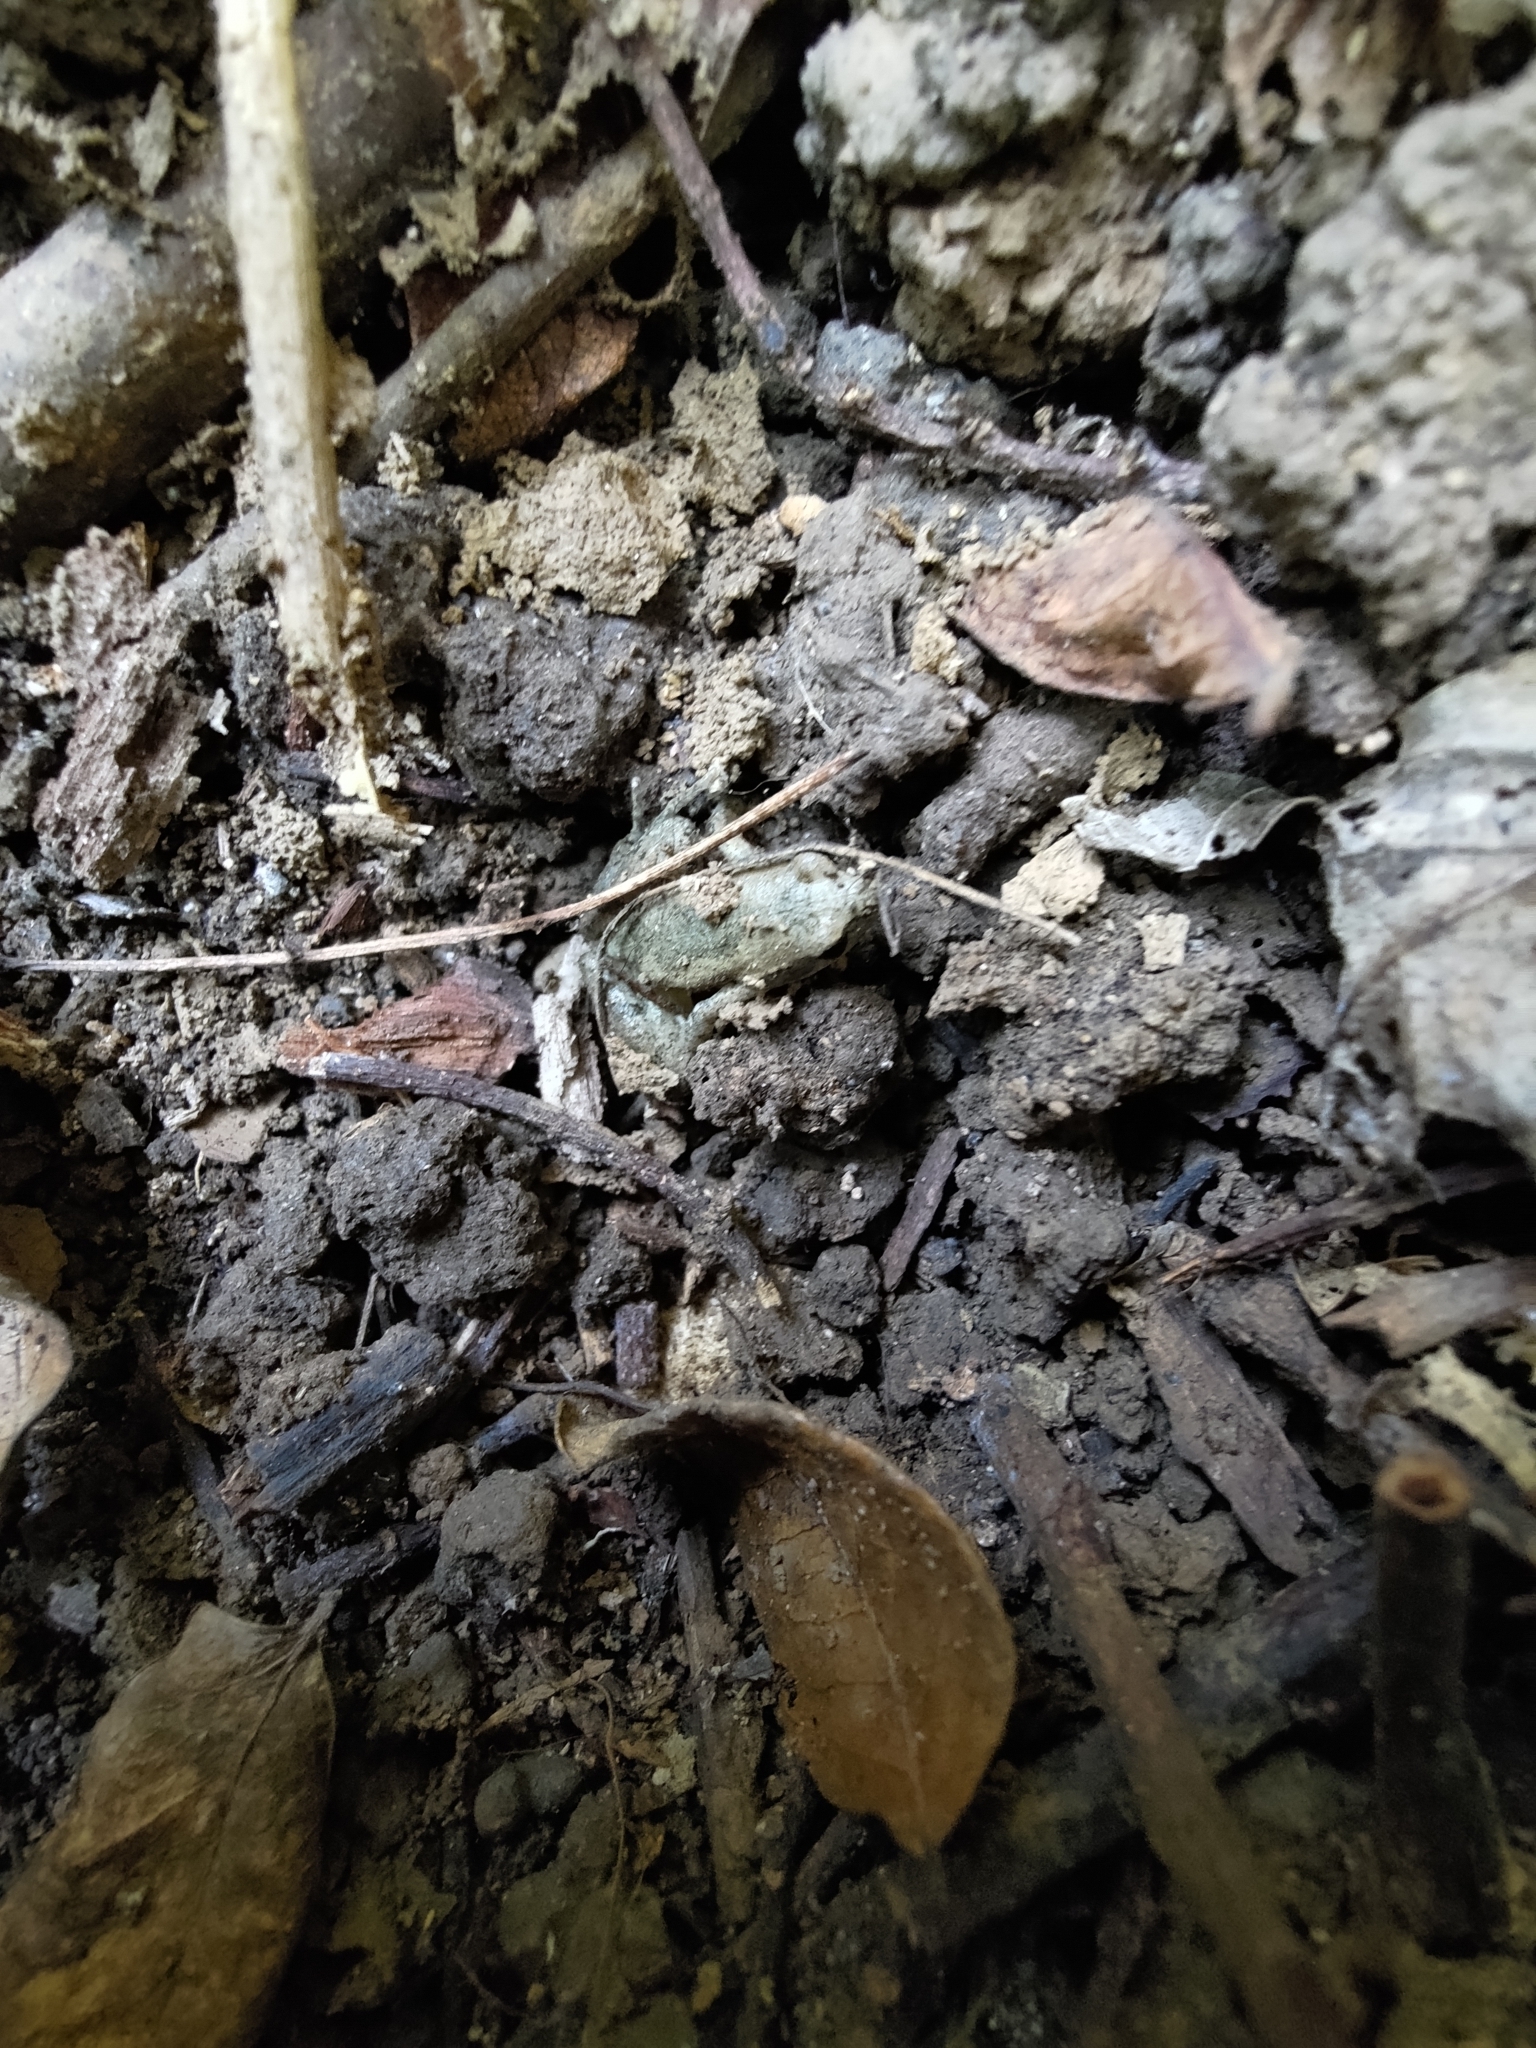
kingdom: Animalia
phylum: Chordata
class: Amphibia
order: Anura
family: Microhylidae
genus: Microhyla
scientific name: Microhyla fissipes
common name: Ornate narrow-mouthed frog
